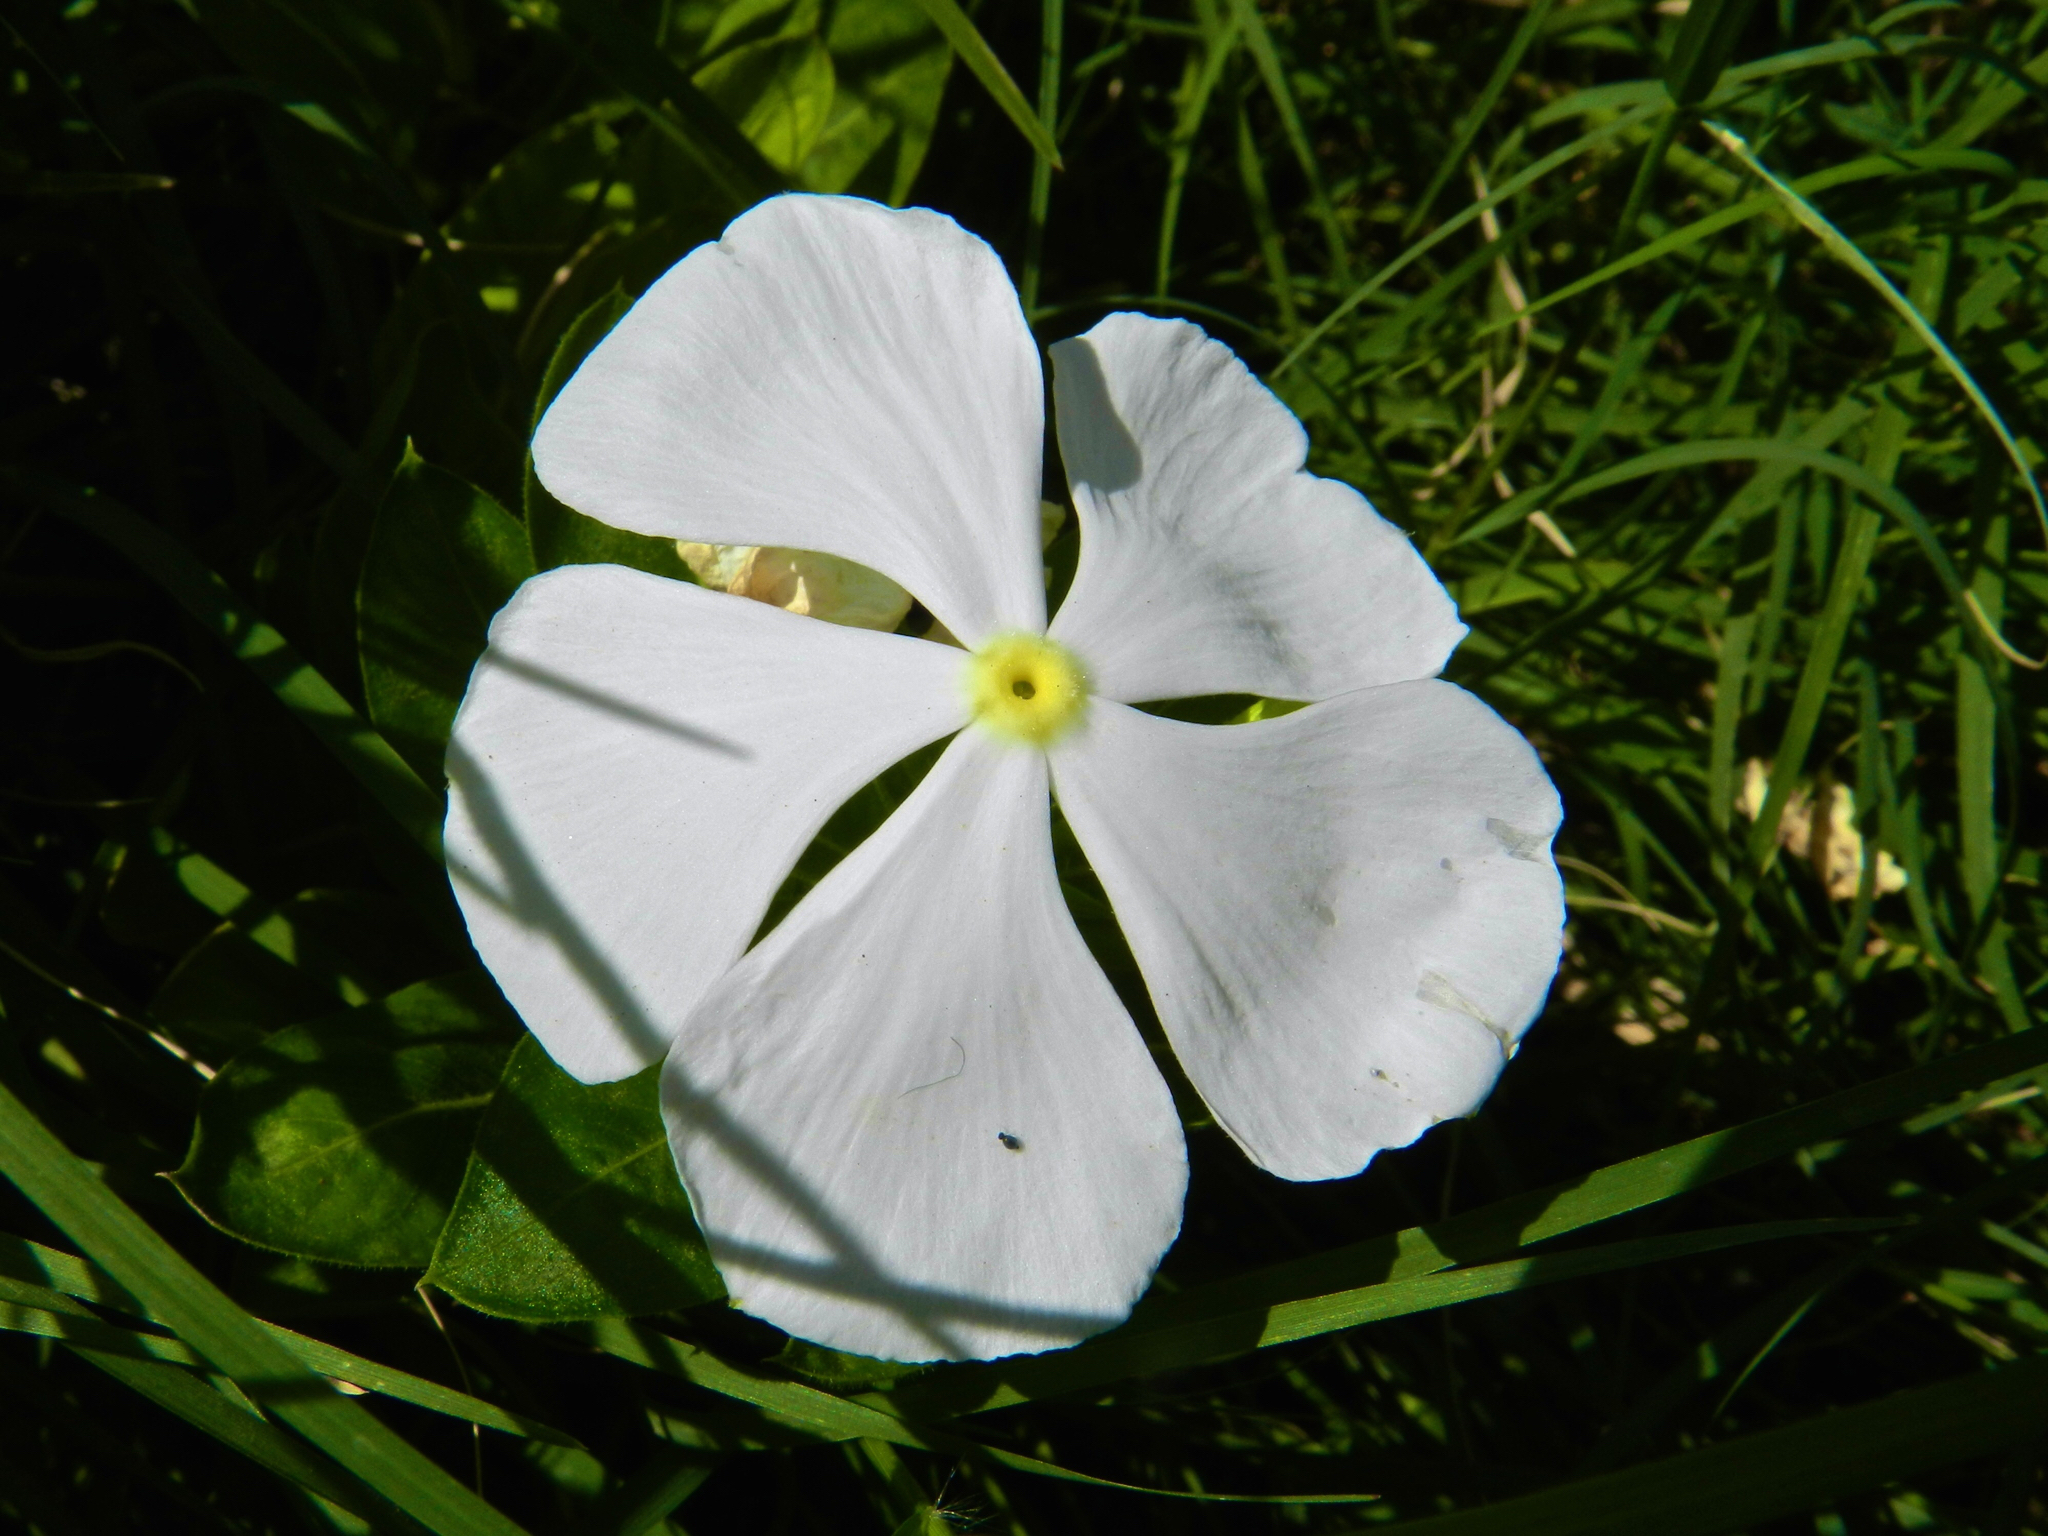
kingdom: Plantae
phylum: Tracheophyta
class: Magnoliopsida
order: Gentianales
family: Apocynaceae
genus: Catharanthus
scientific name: Catharanthus roseus
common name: Madagascar periwinkle
